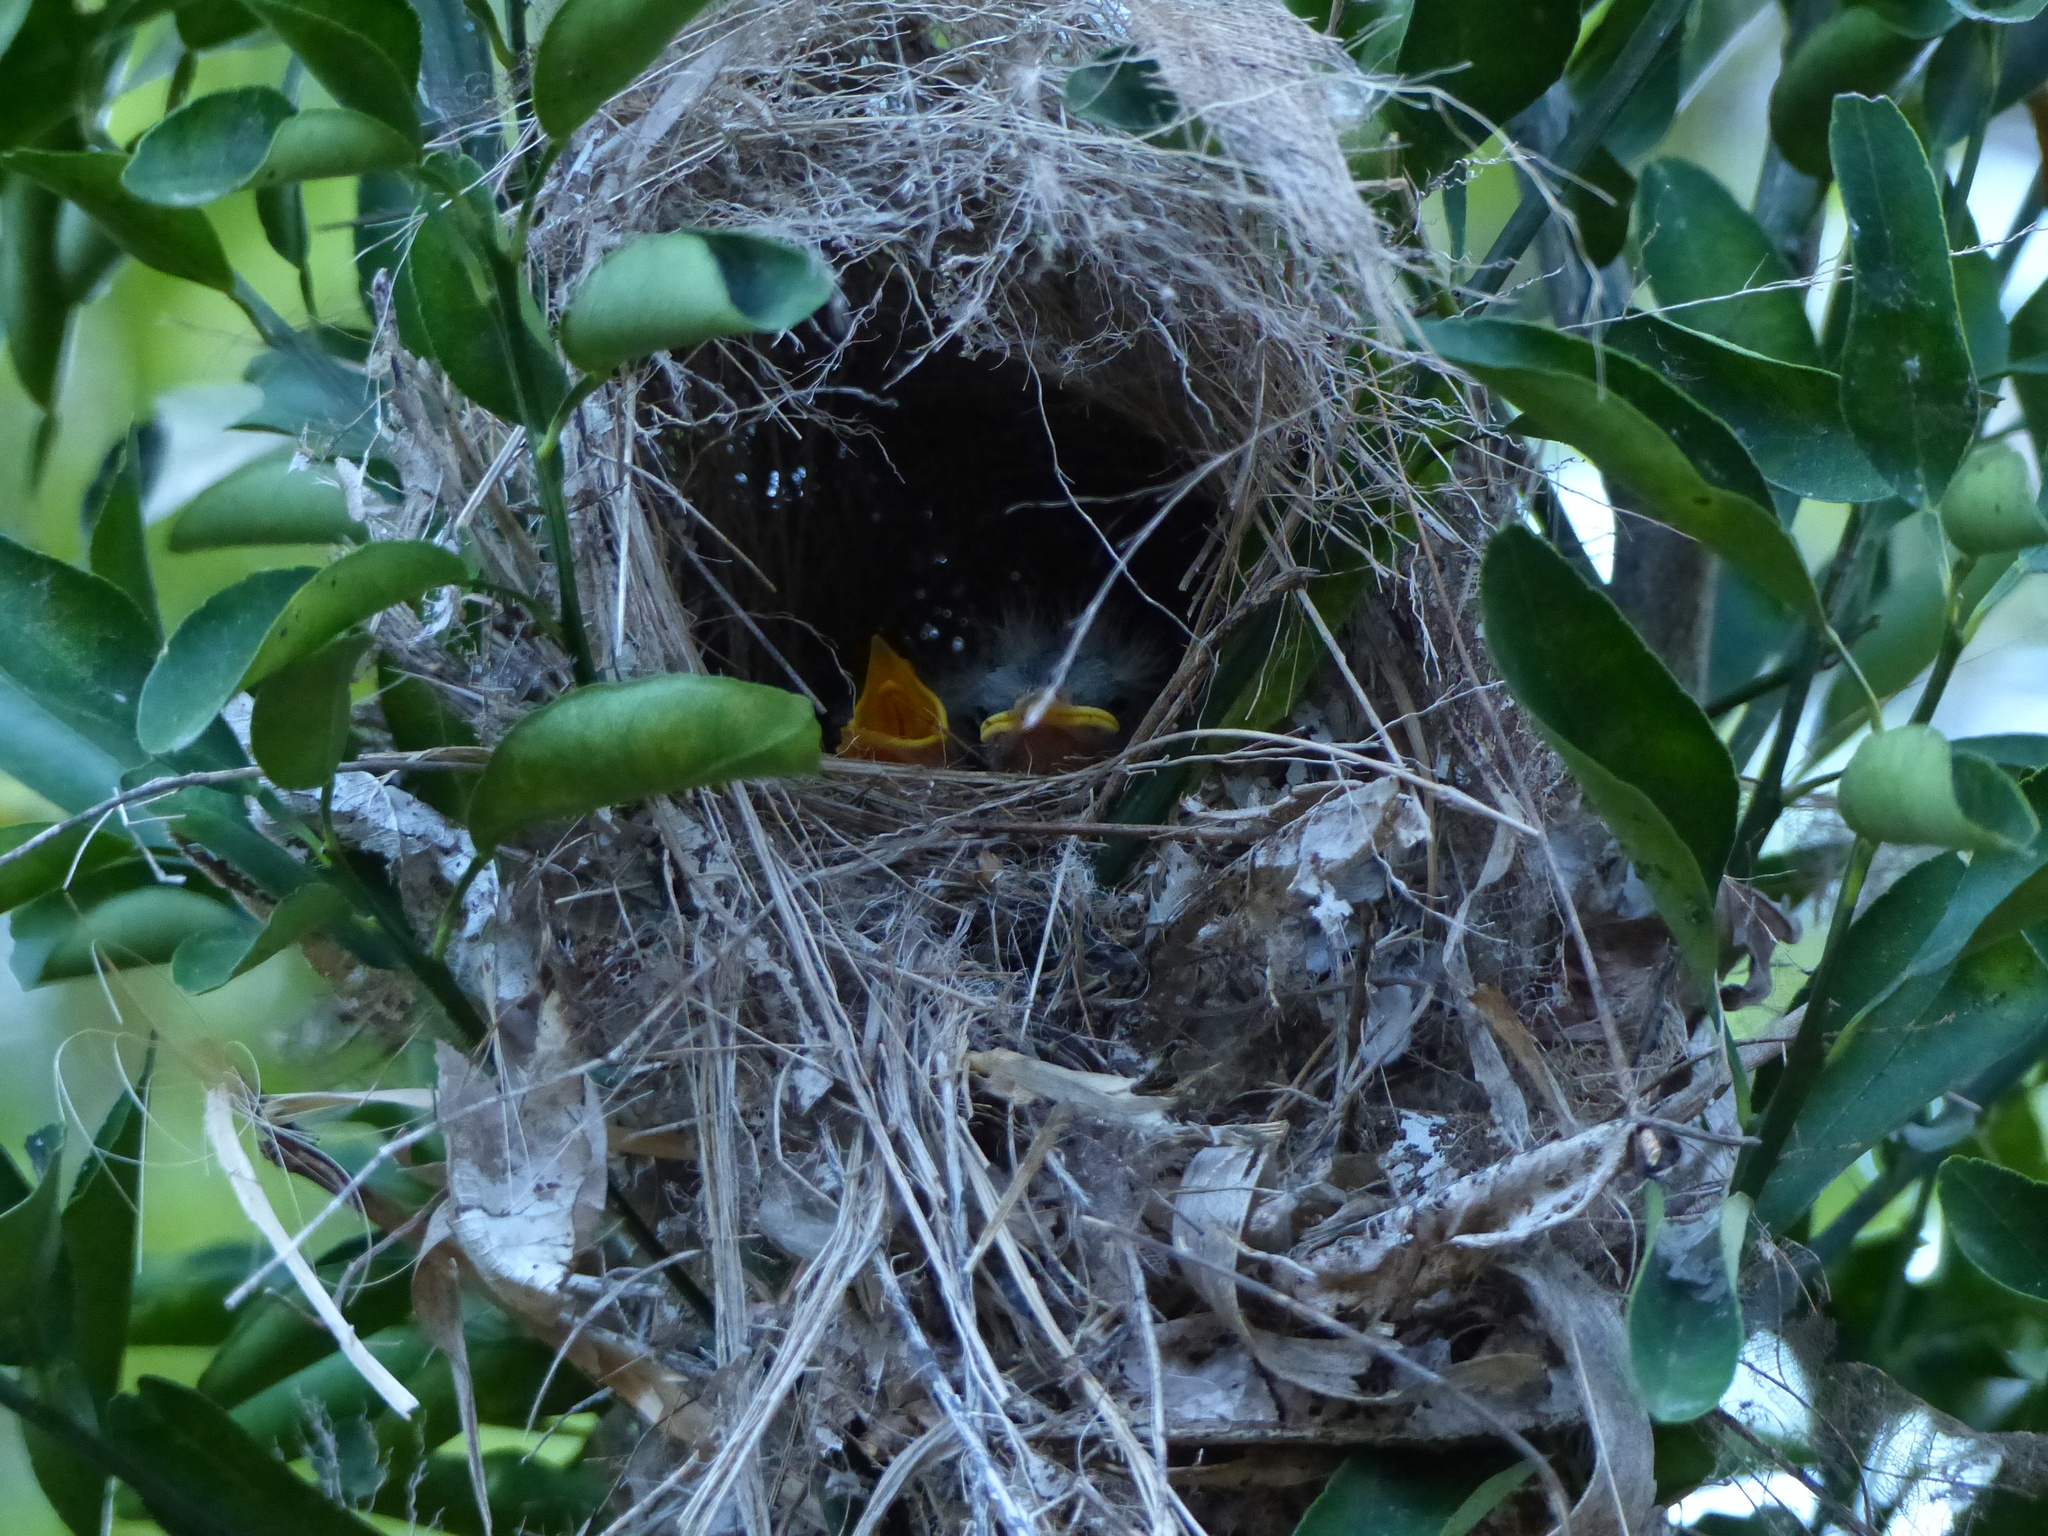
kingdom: Animalia
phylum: Chordata
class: Aves
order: Passeriformes
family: Tyrannidae
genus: Myiozetetes
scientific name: Myiozetetes similis
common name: Social flycatcher
